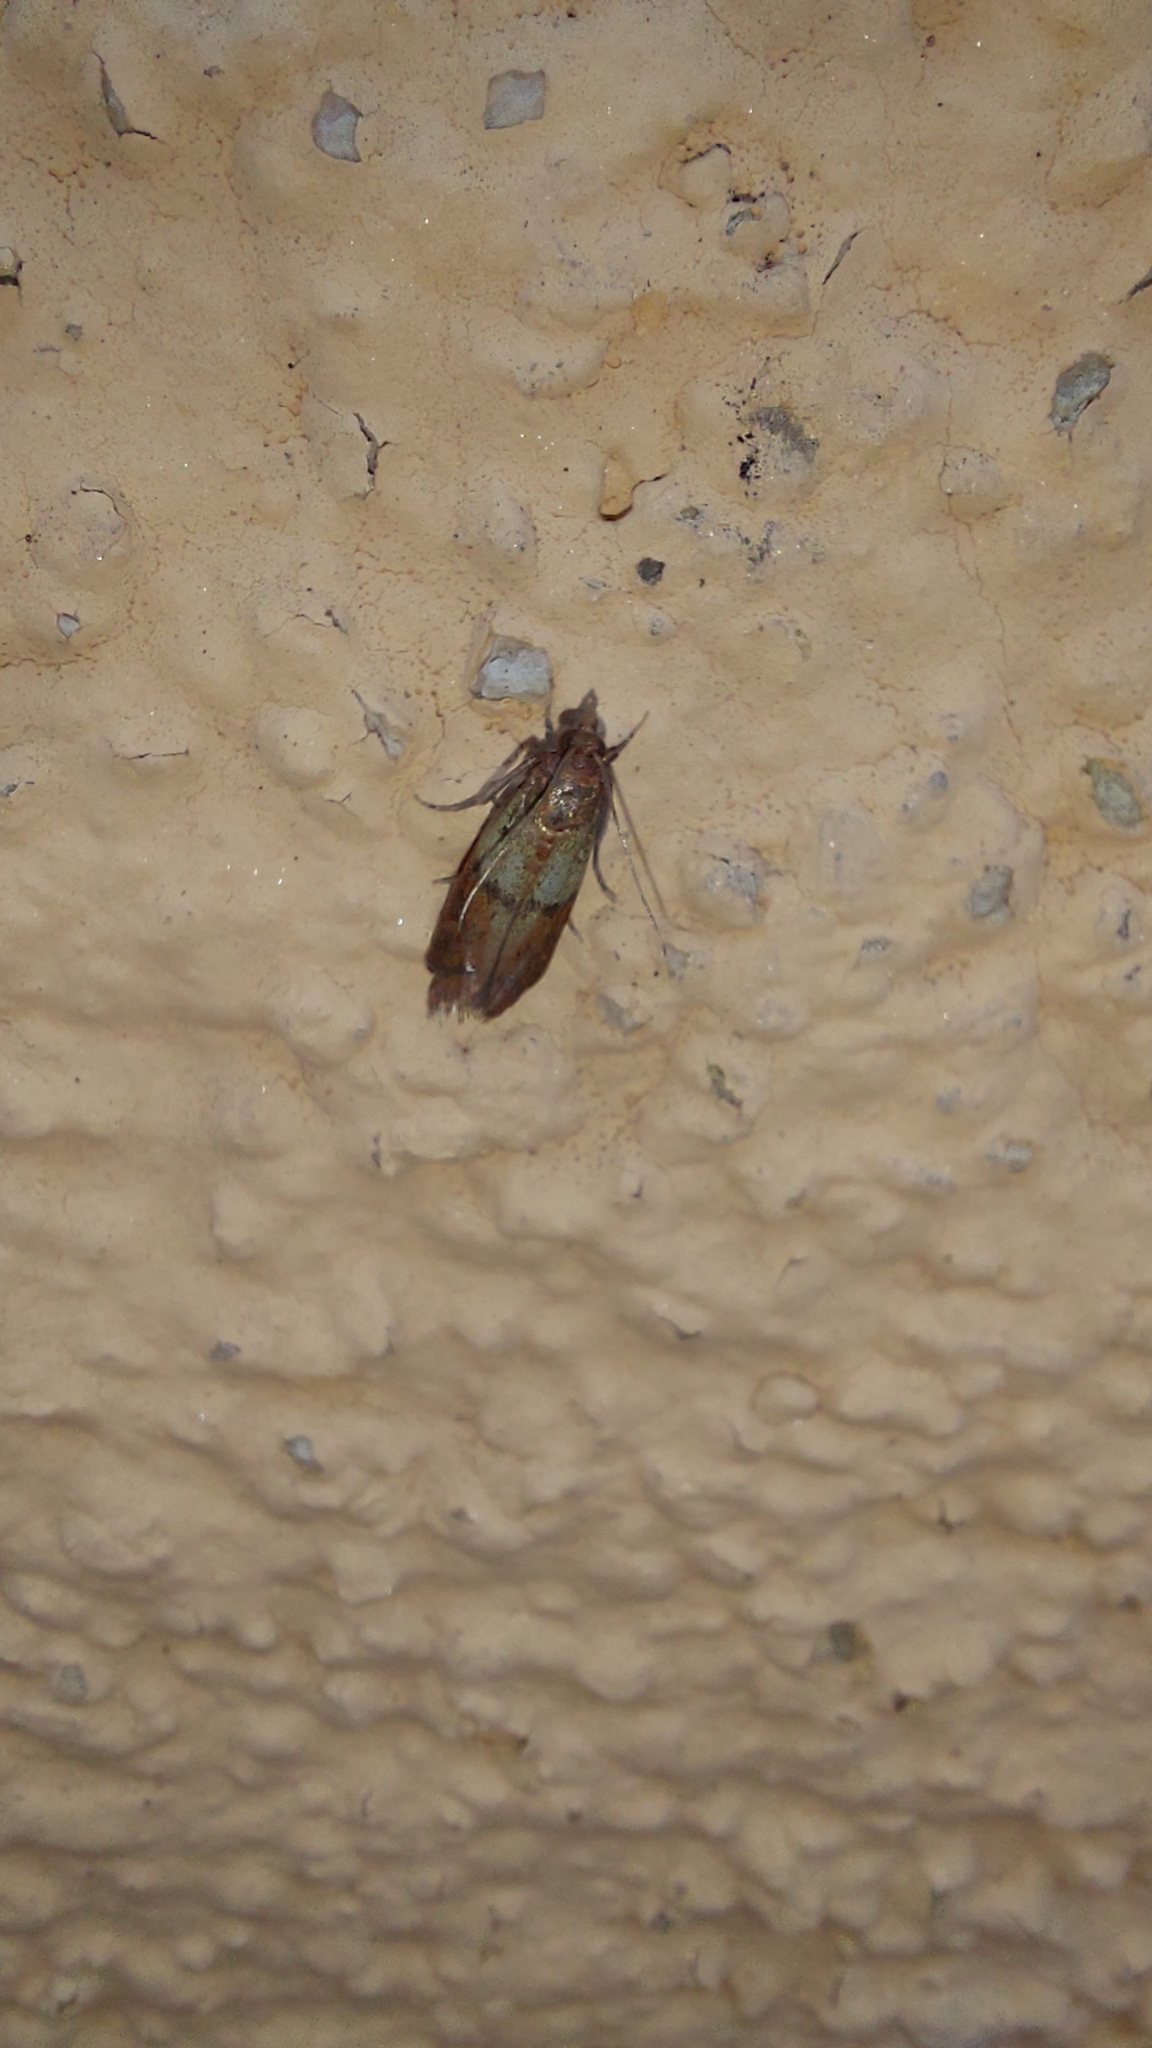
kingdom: Animalia
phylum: Arthropoda
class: Insecta
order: Lepidoptera
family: Pyralidae
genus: Plodia
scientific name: Plodia interpunctella
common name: Indian meal moth
